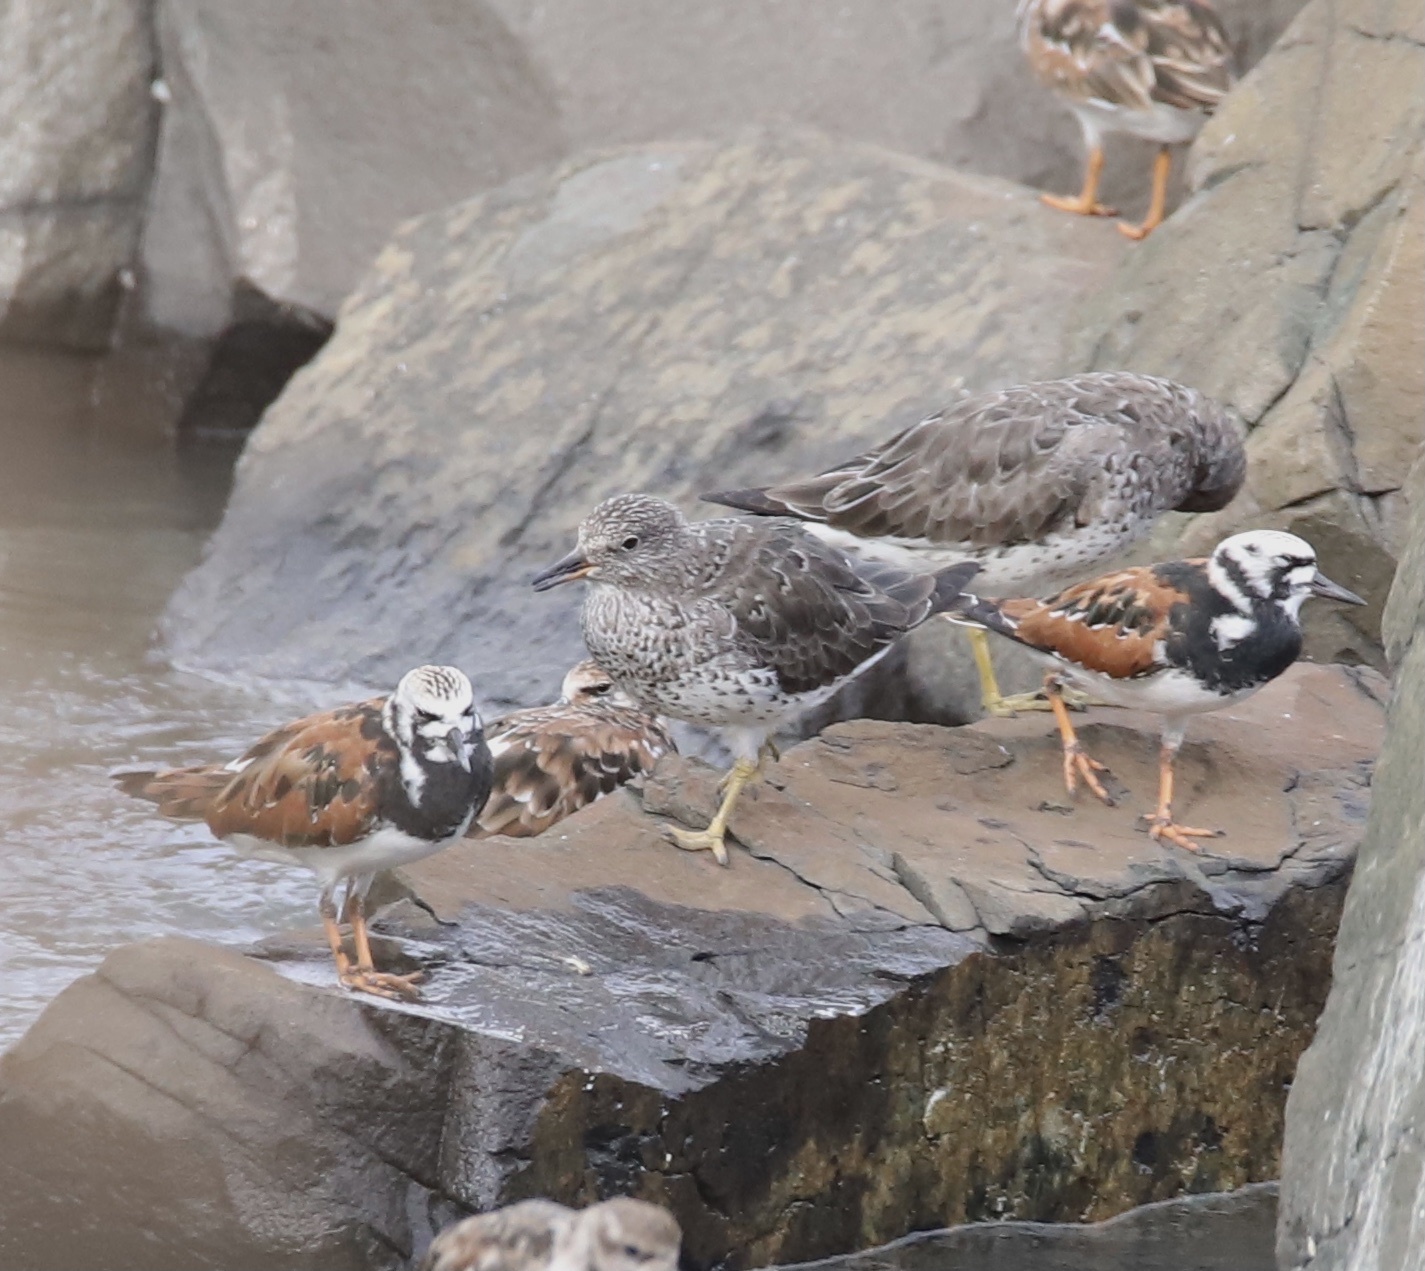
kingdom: Animalia
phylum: Chordata
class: Aves
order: Charadriiformes
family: Scolopacidae
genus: Calidris
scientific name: Calidris virgata
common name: Surfbird
